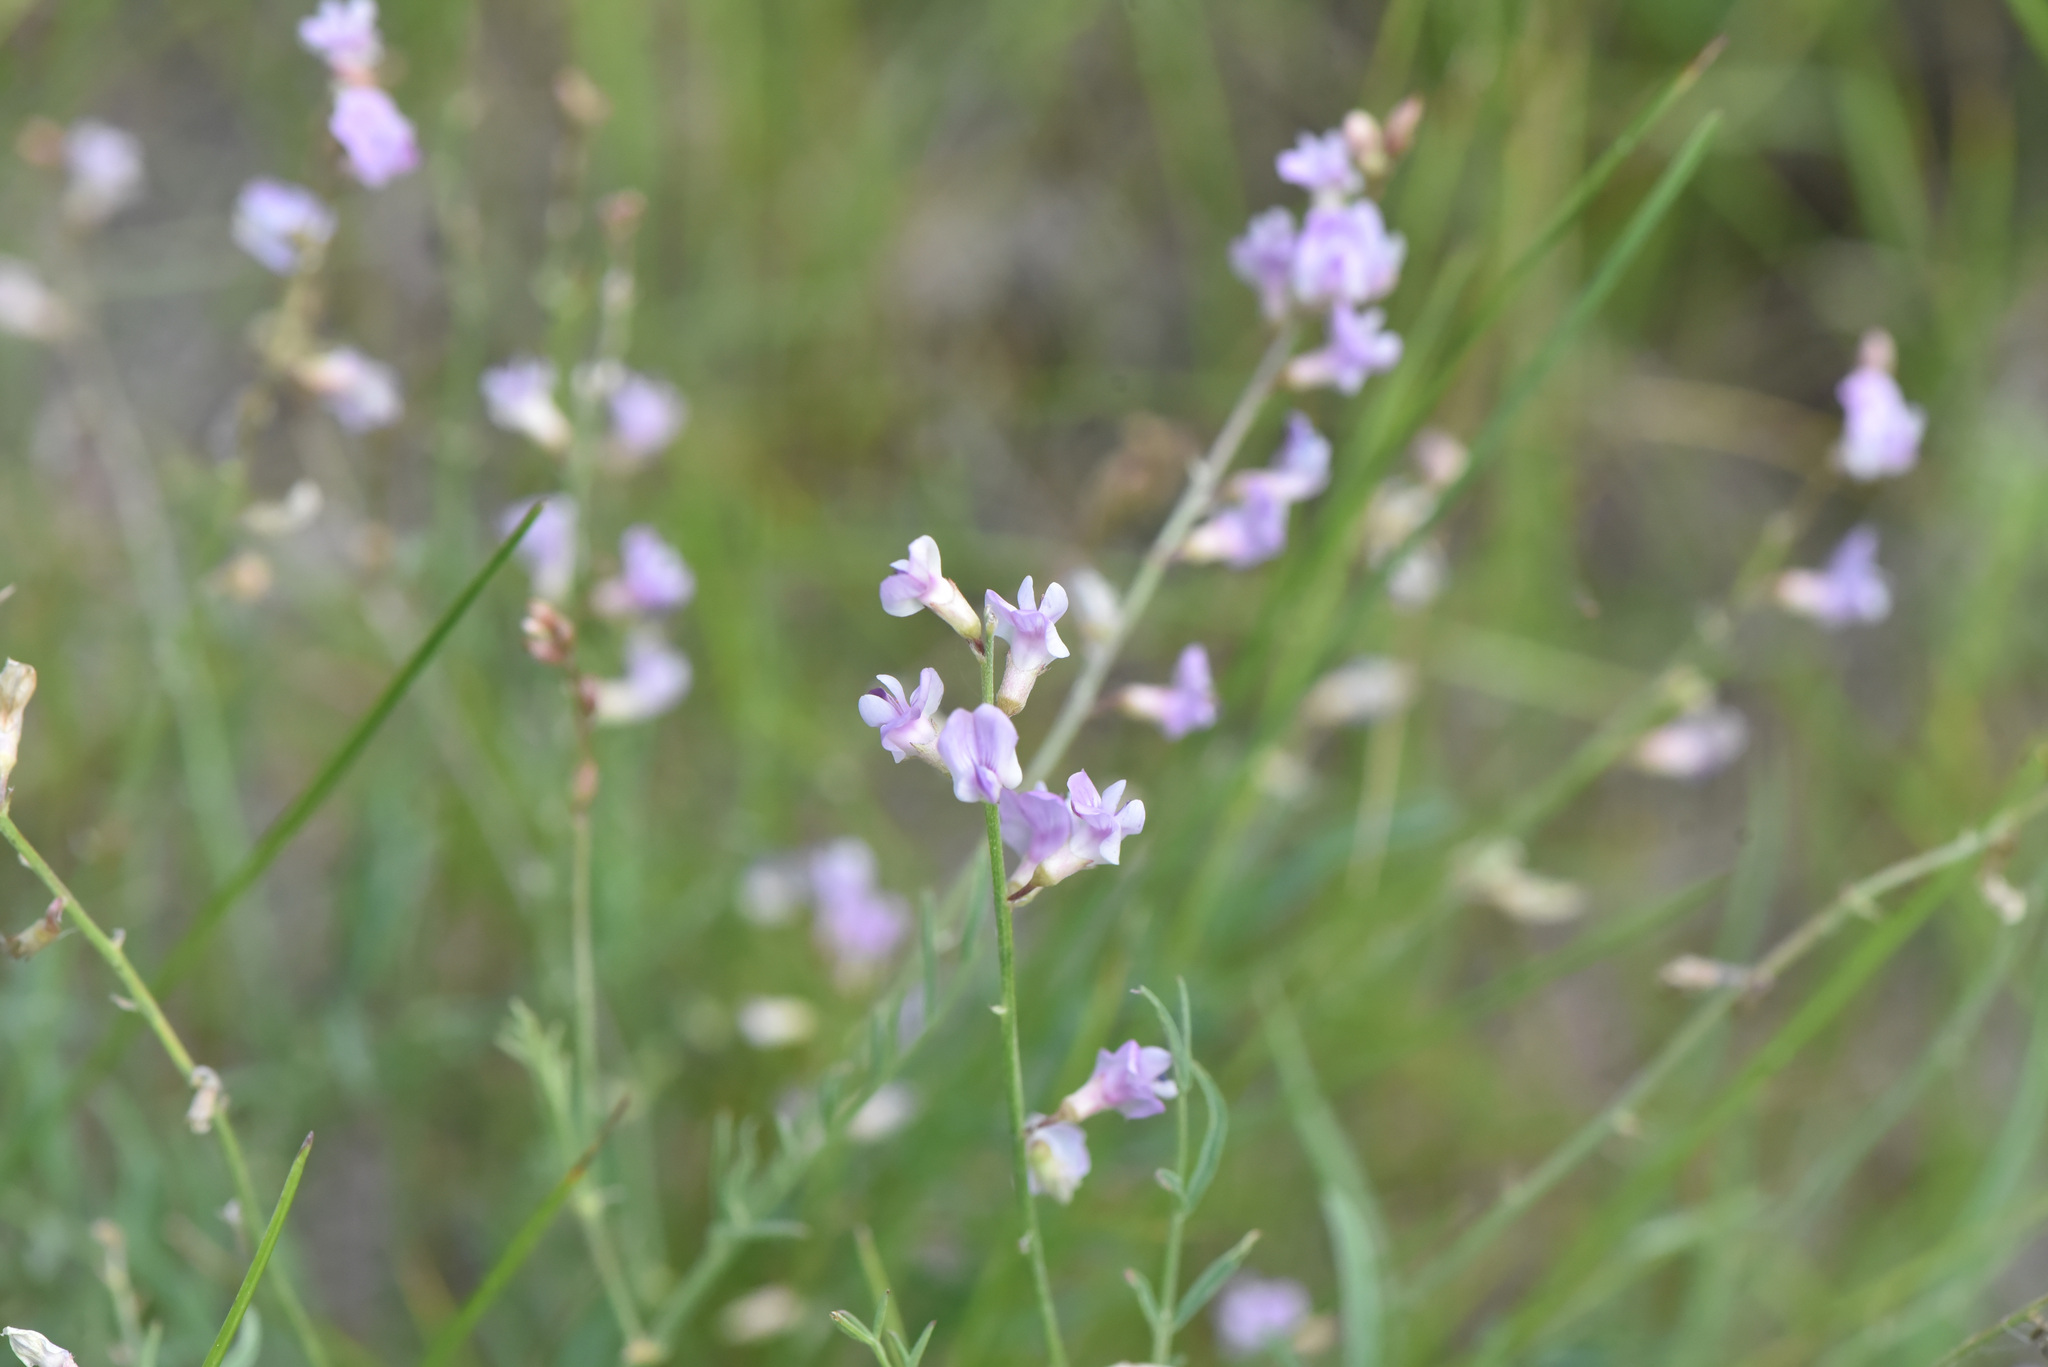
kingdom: Plantae
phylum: Tracheophyta
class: Magnoliopsida
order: Fabales
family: Fabaceae
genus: Astragalus
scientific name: Astragalus miser
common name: Timber milkvetch
